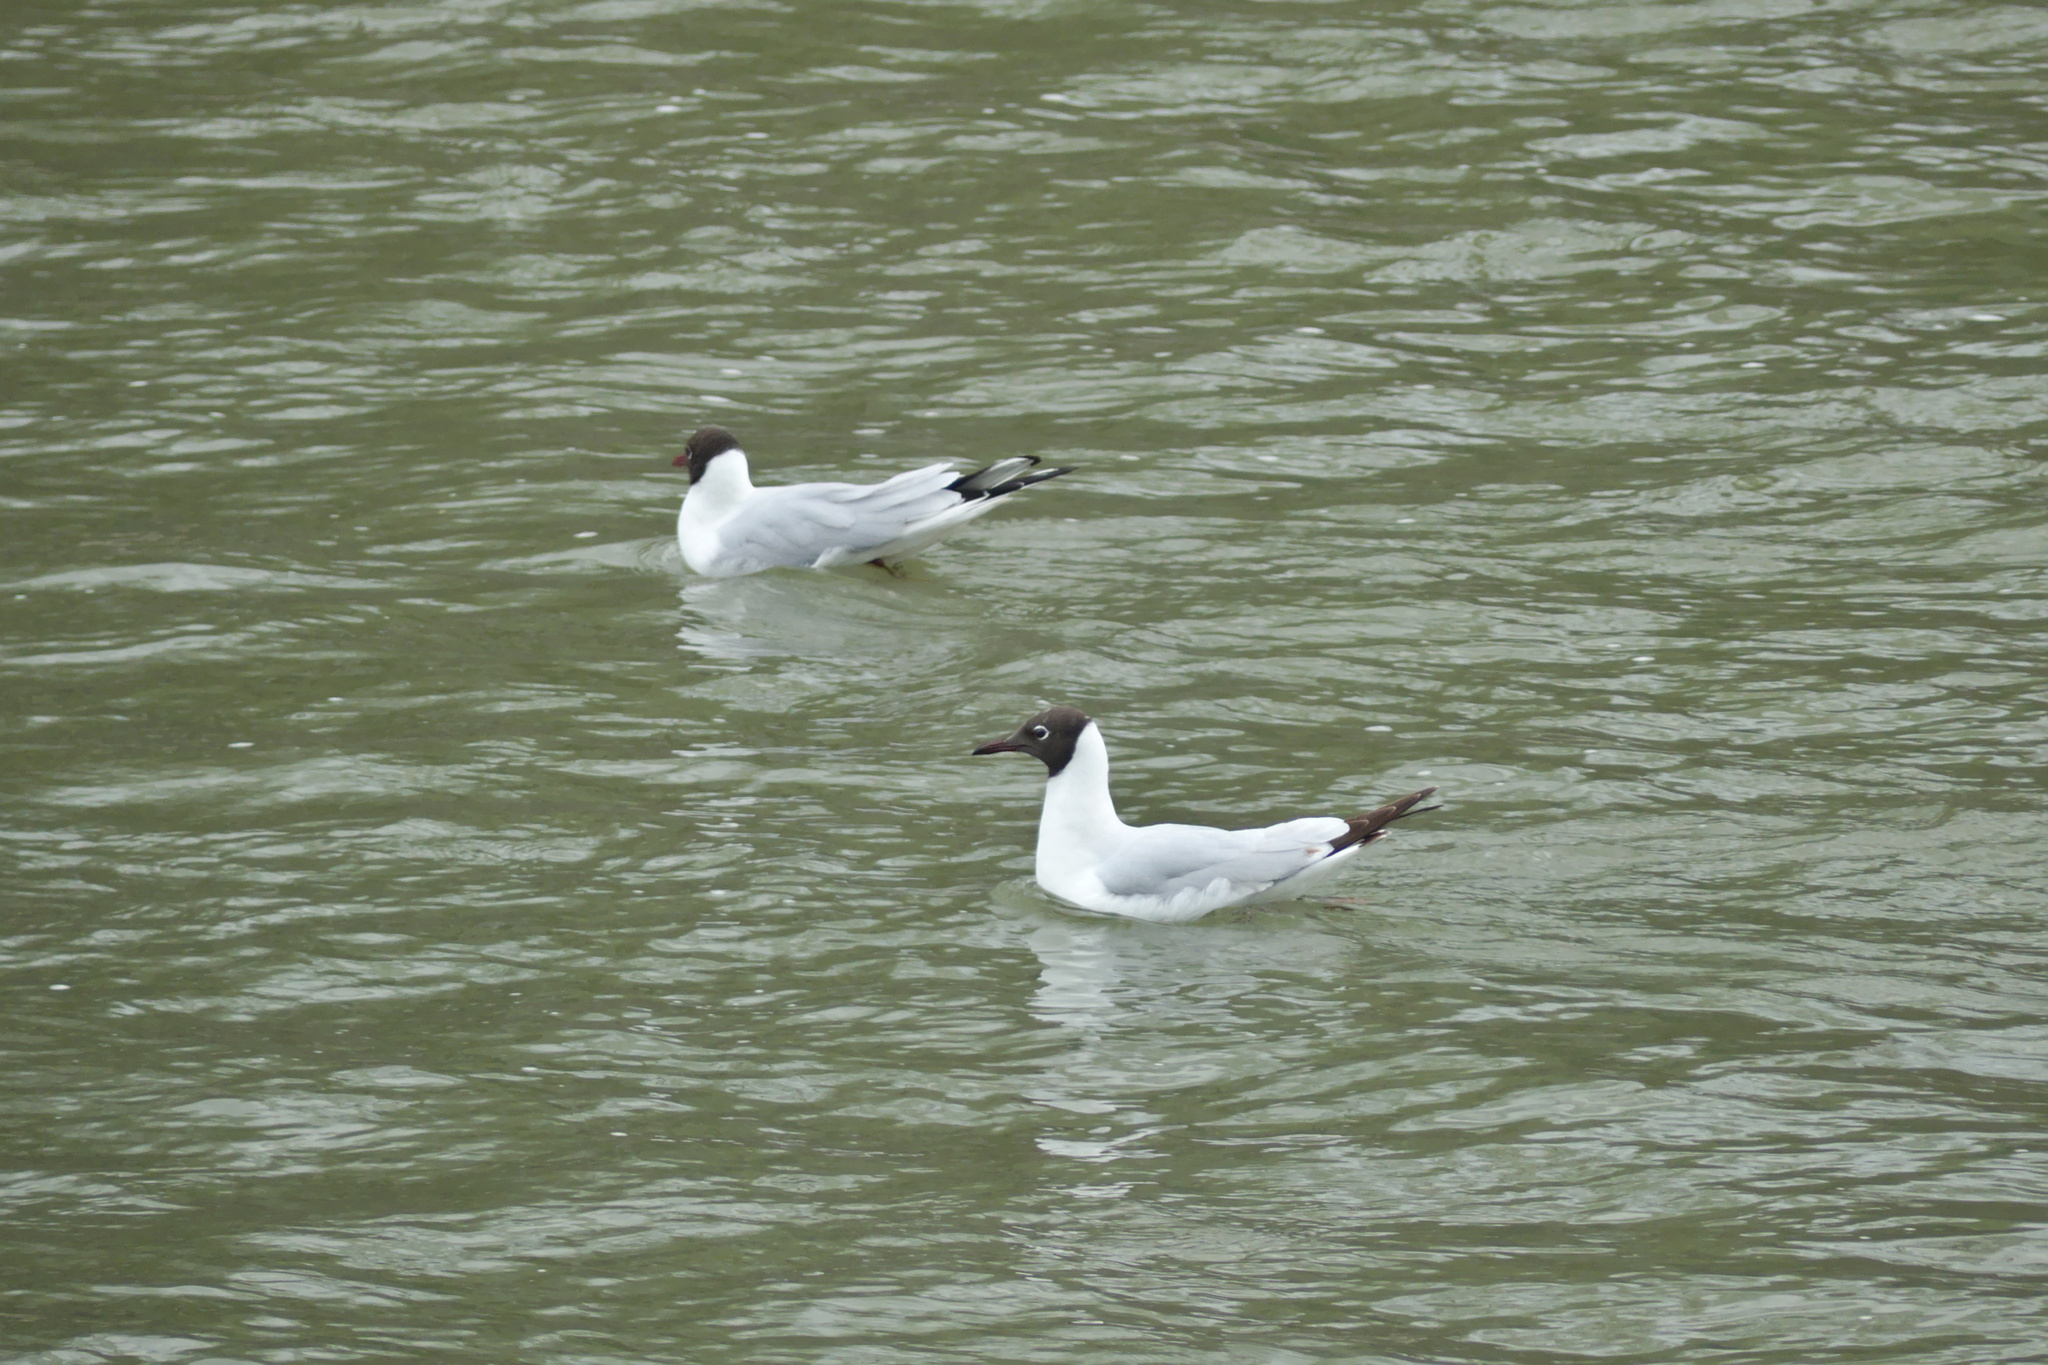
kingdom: Animalia
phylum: Chordata
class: Aves
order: Charadriiformes
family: Laridae
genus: Chroicocephalus
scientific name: Chroicocephalus ridibundus
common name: Black-headed gull
